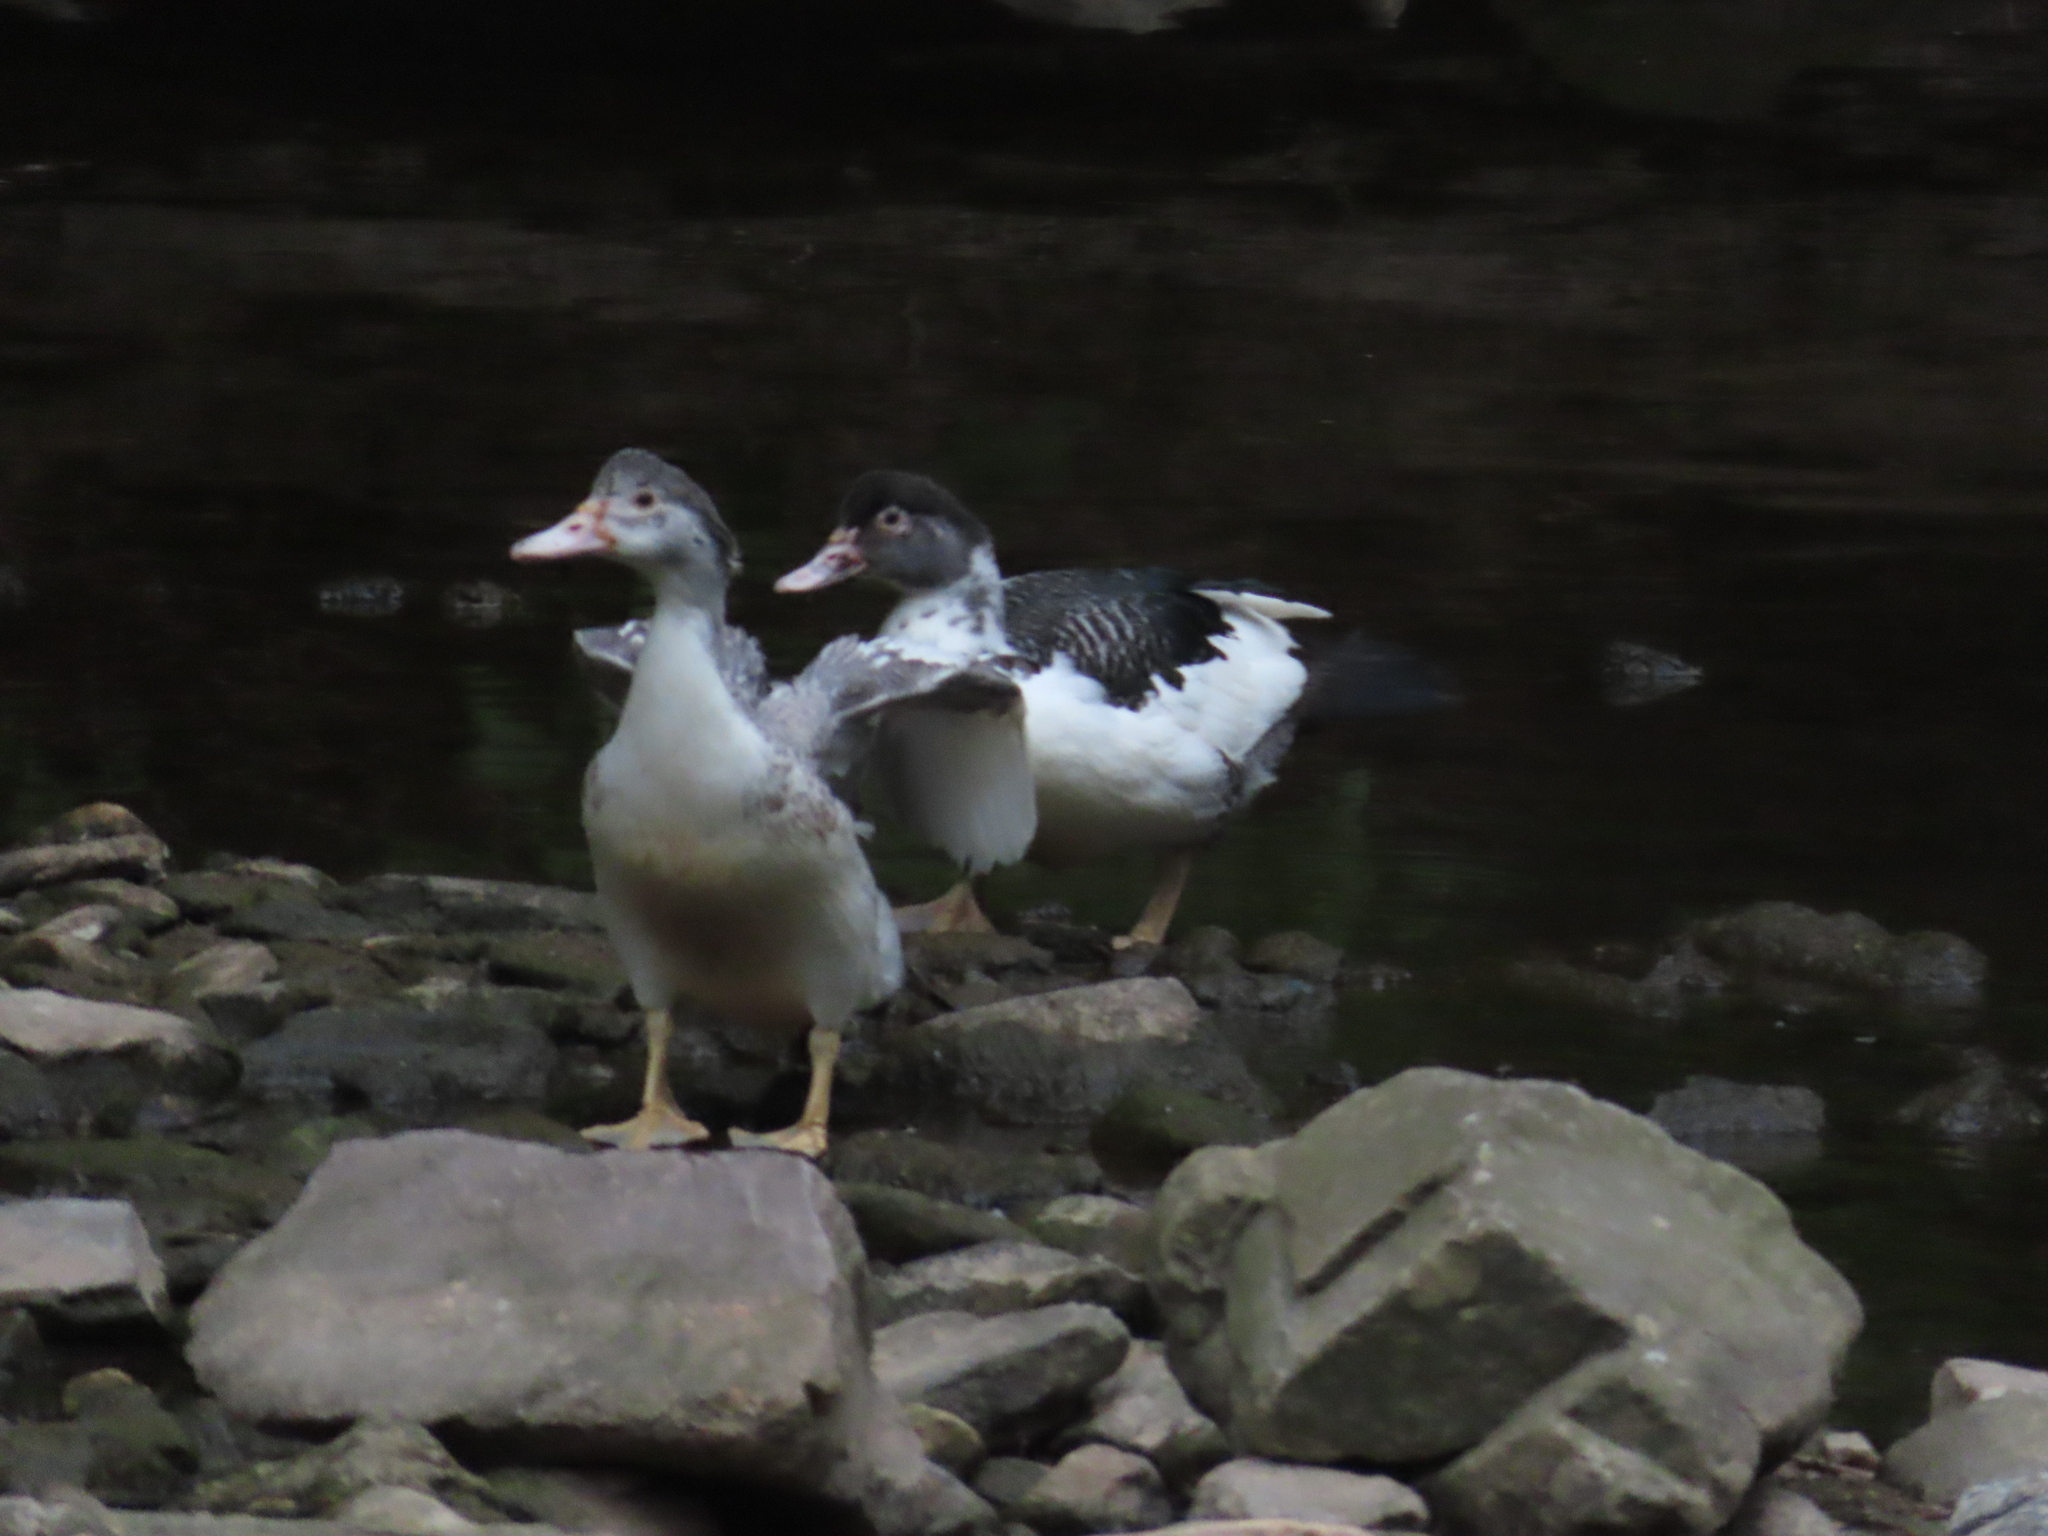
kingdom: Animalia
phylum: Chordata
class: Aves
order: Anseriformes
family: Anatidae
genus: Cairina
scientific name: Cairina moschata
